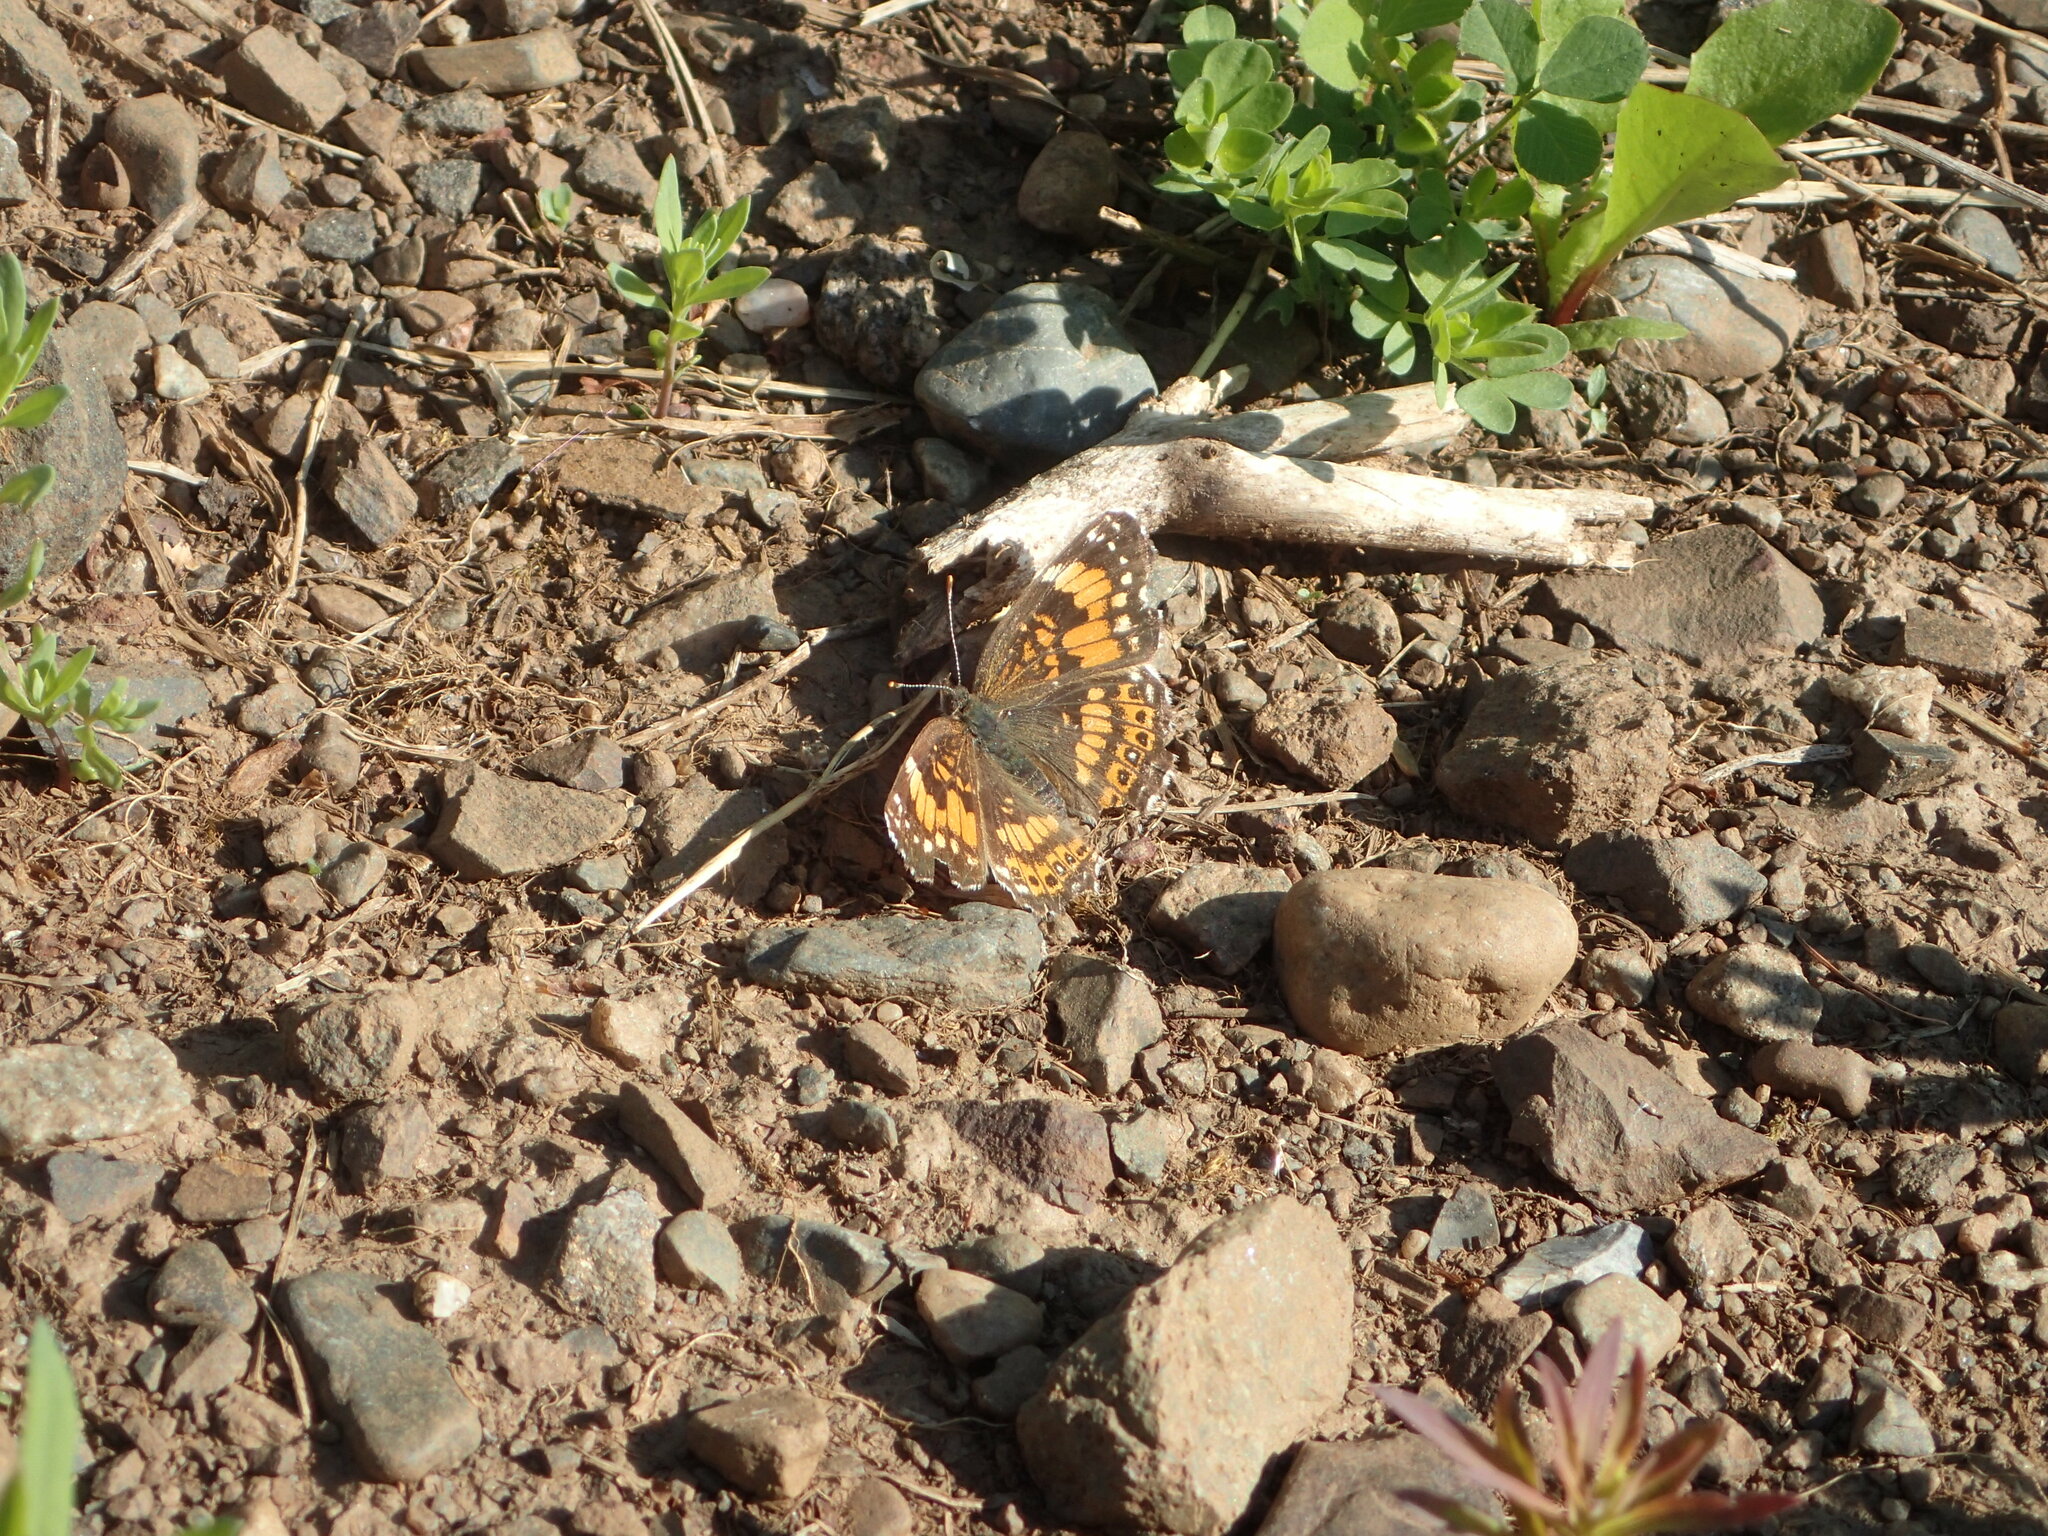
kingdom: Animalia
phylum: Arthropoda
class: Insecta
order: Lepidoptera
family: Nymphalidae
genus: Chlosyne
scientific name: Chlosyne nycteis
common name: Silvery checkerspot
